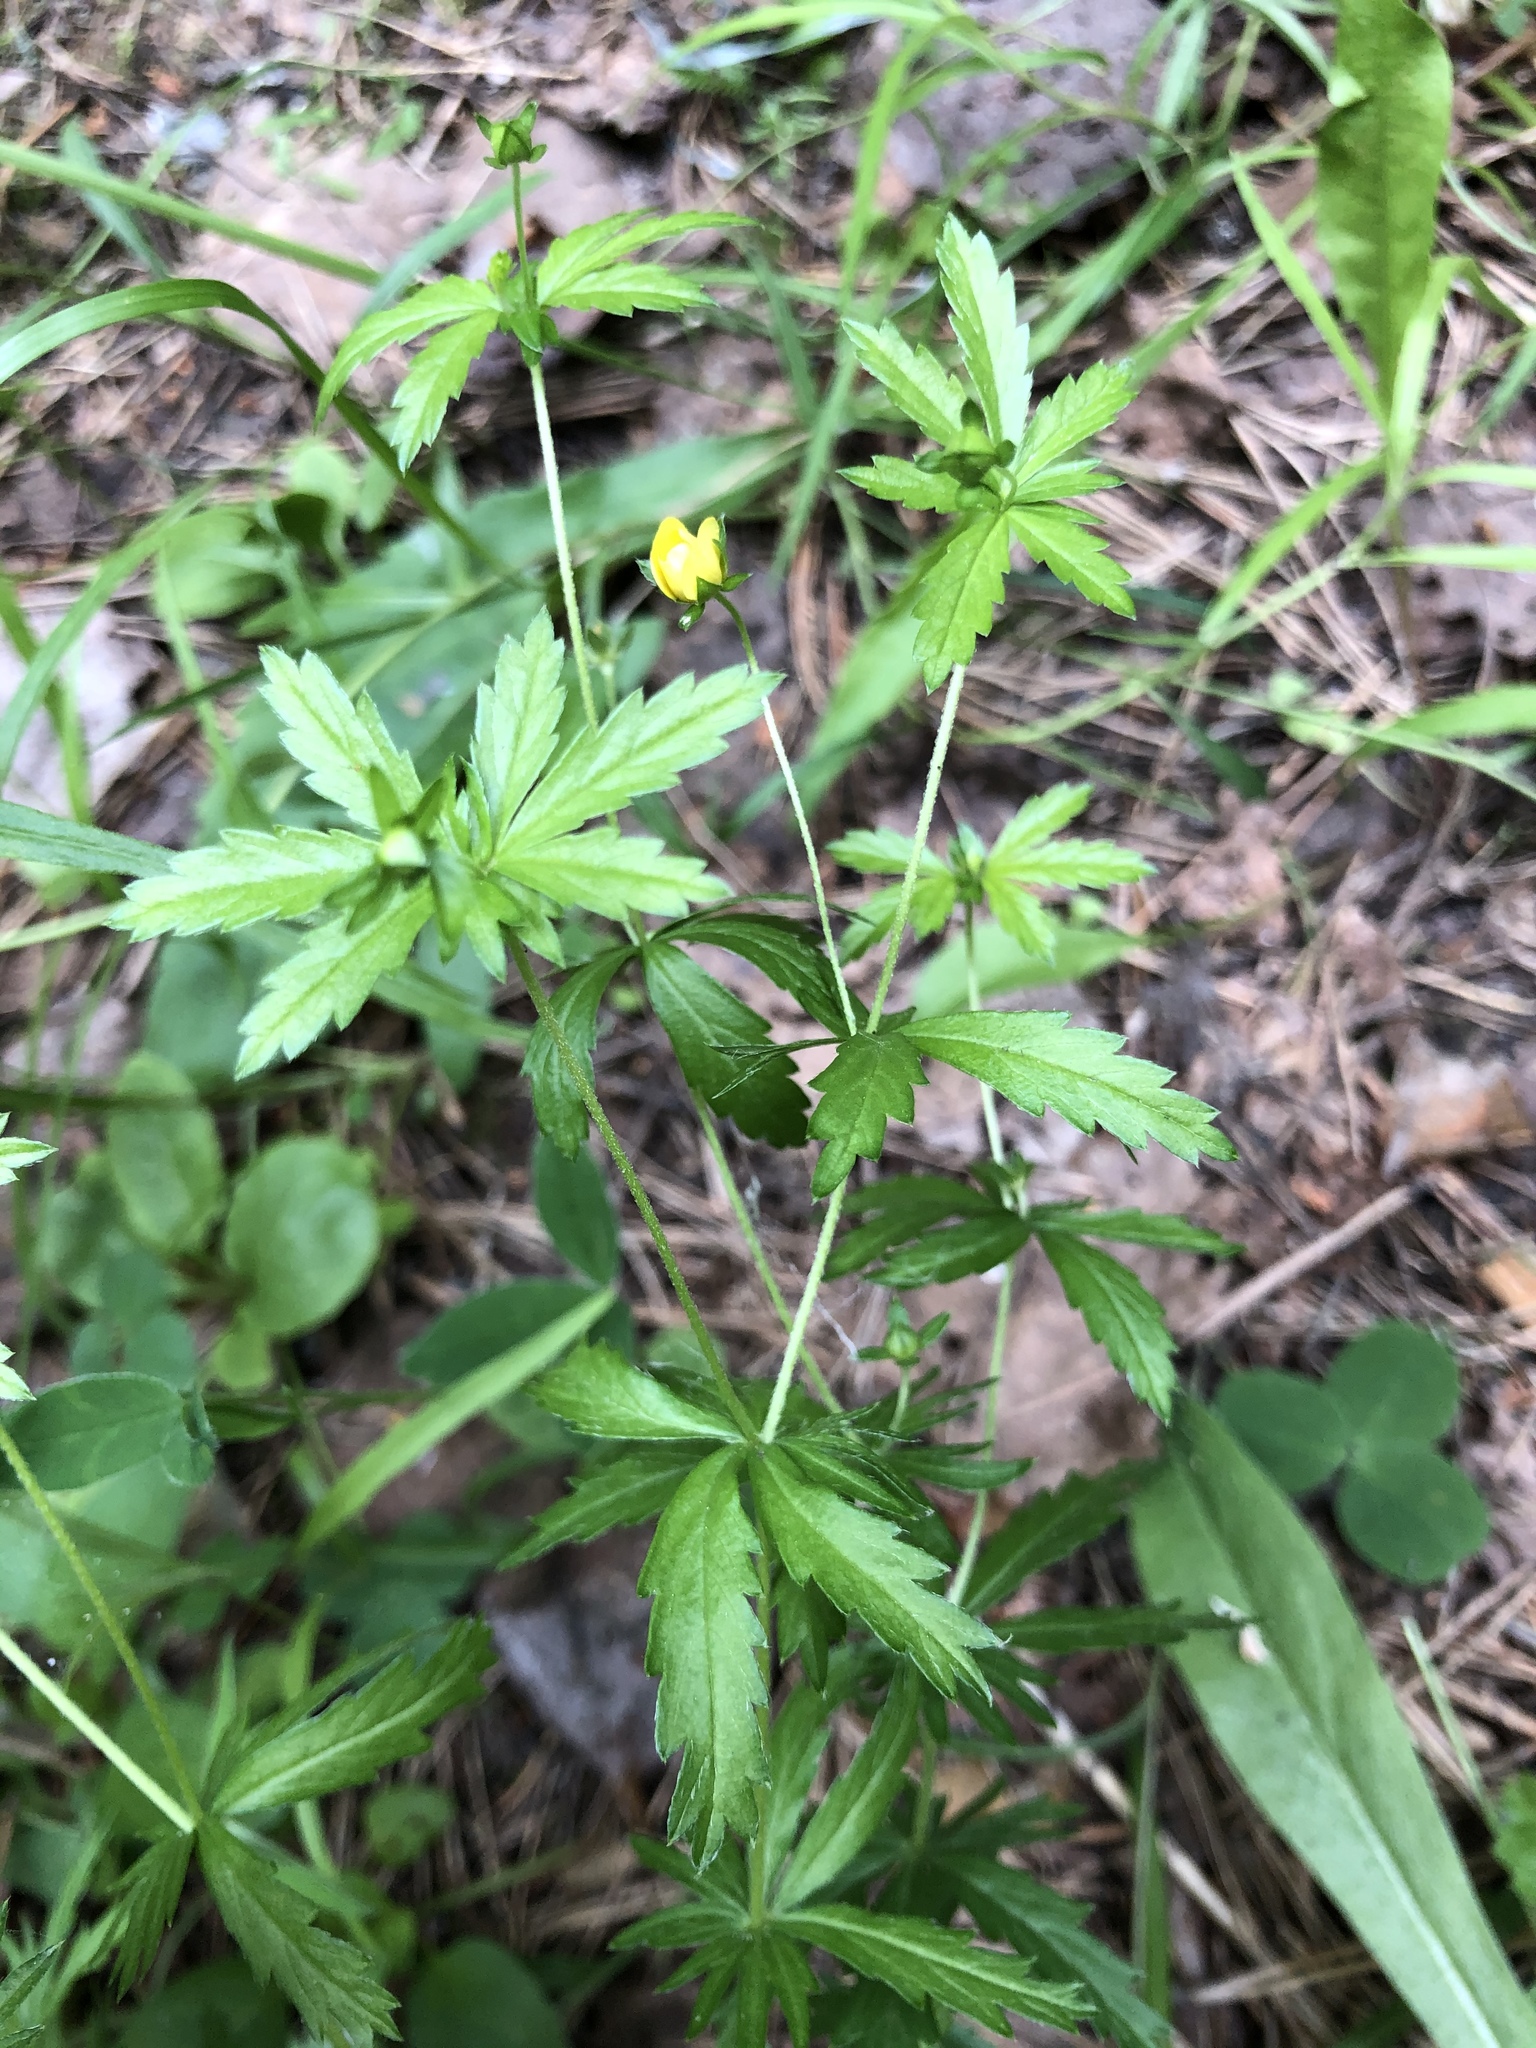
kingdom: Plantae
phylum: Tracheophyta
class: Magnoliopsida
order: Rosales
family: Rosaceae
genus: Potentilla
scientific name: Potentilla erecta
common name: Tormentil
